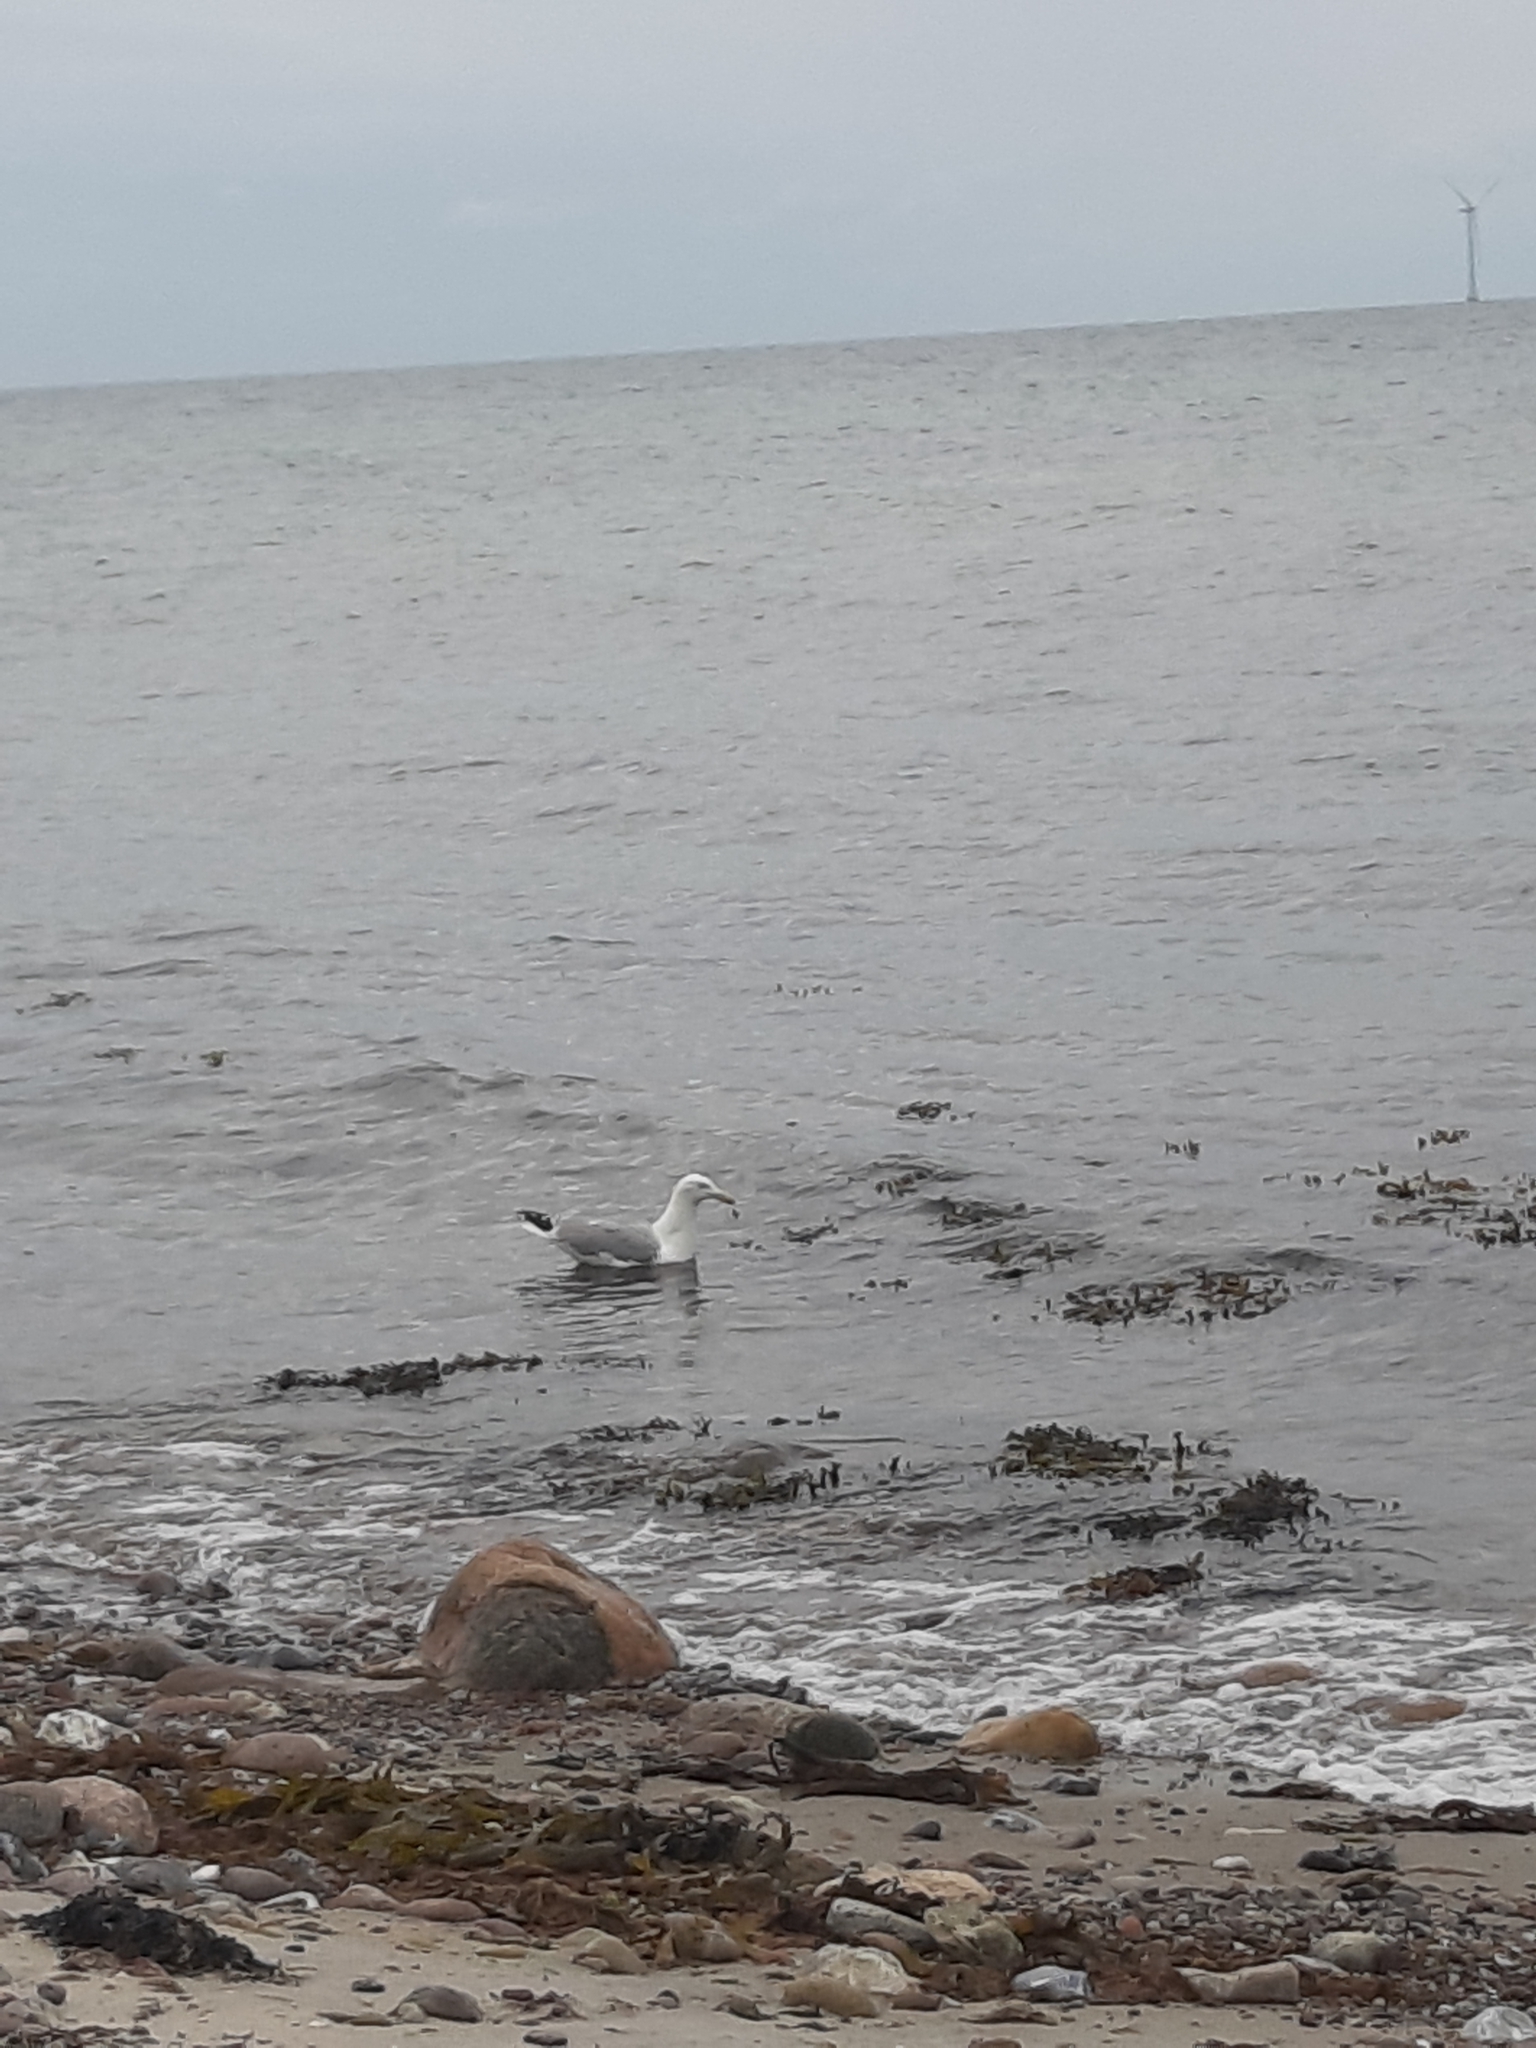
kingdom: Animalia
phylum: Chordata
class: Aves
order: Charadriiformes
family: Laridae
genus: Larus
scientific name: Larus argentatus
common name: Herring gull
